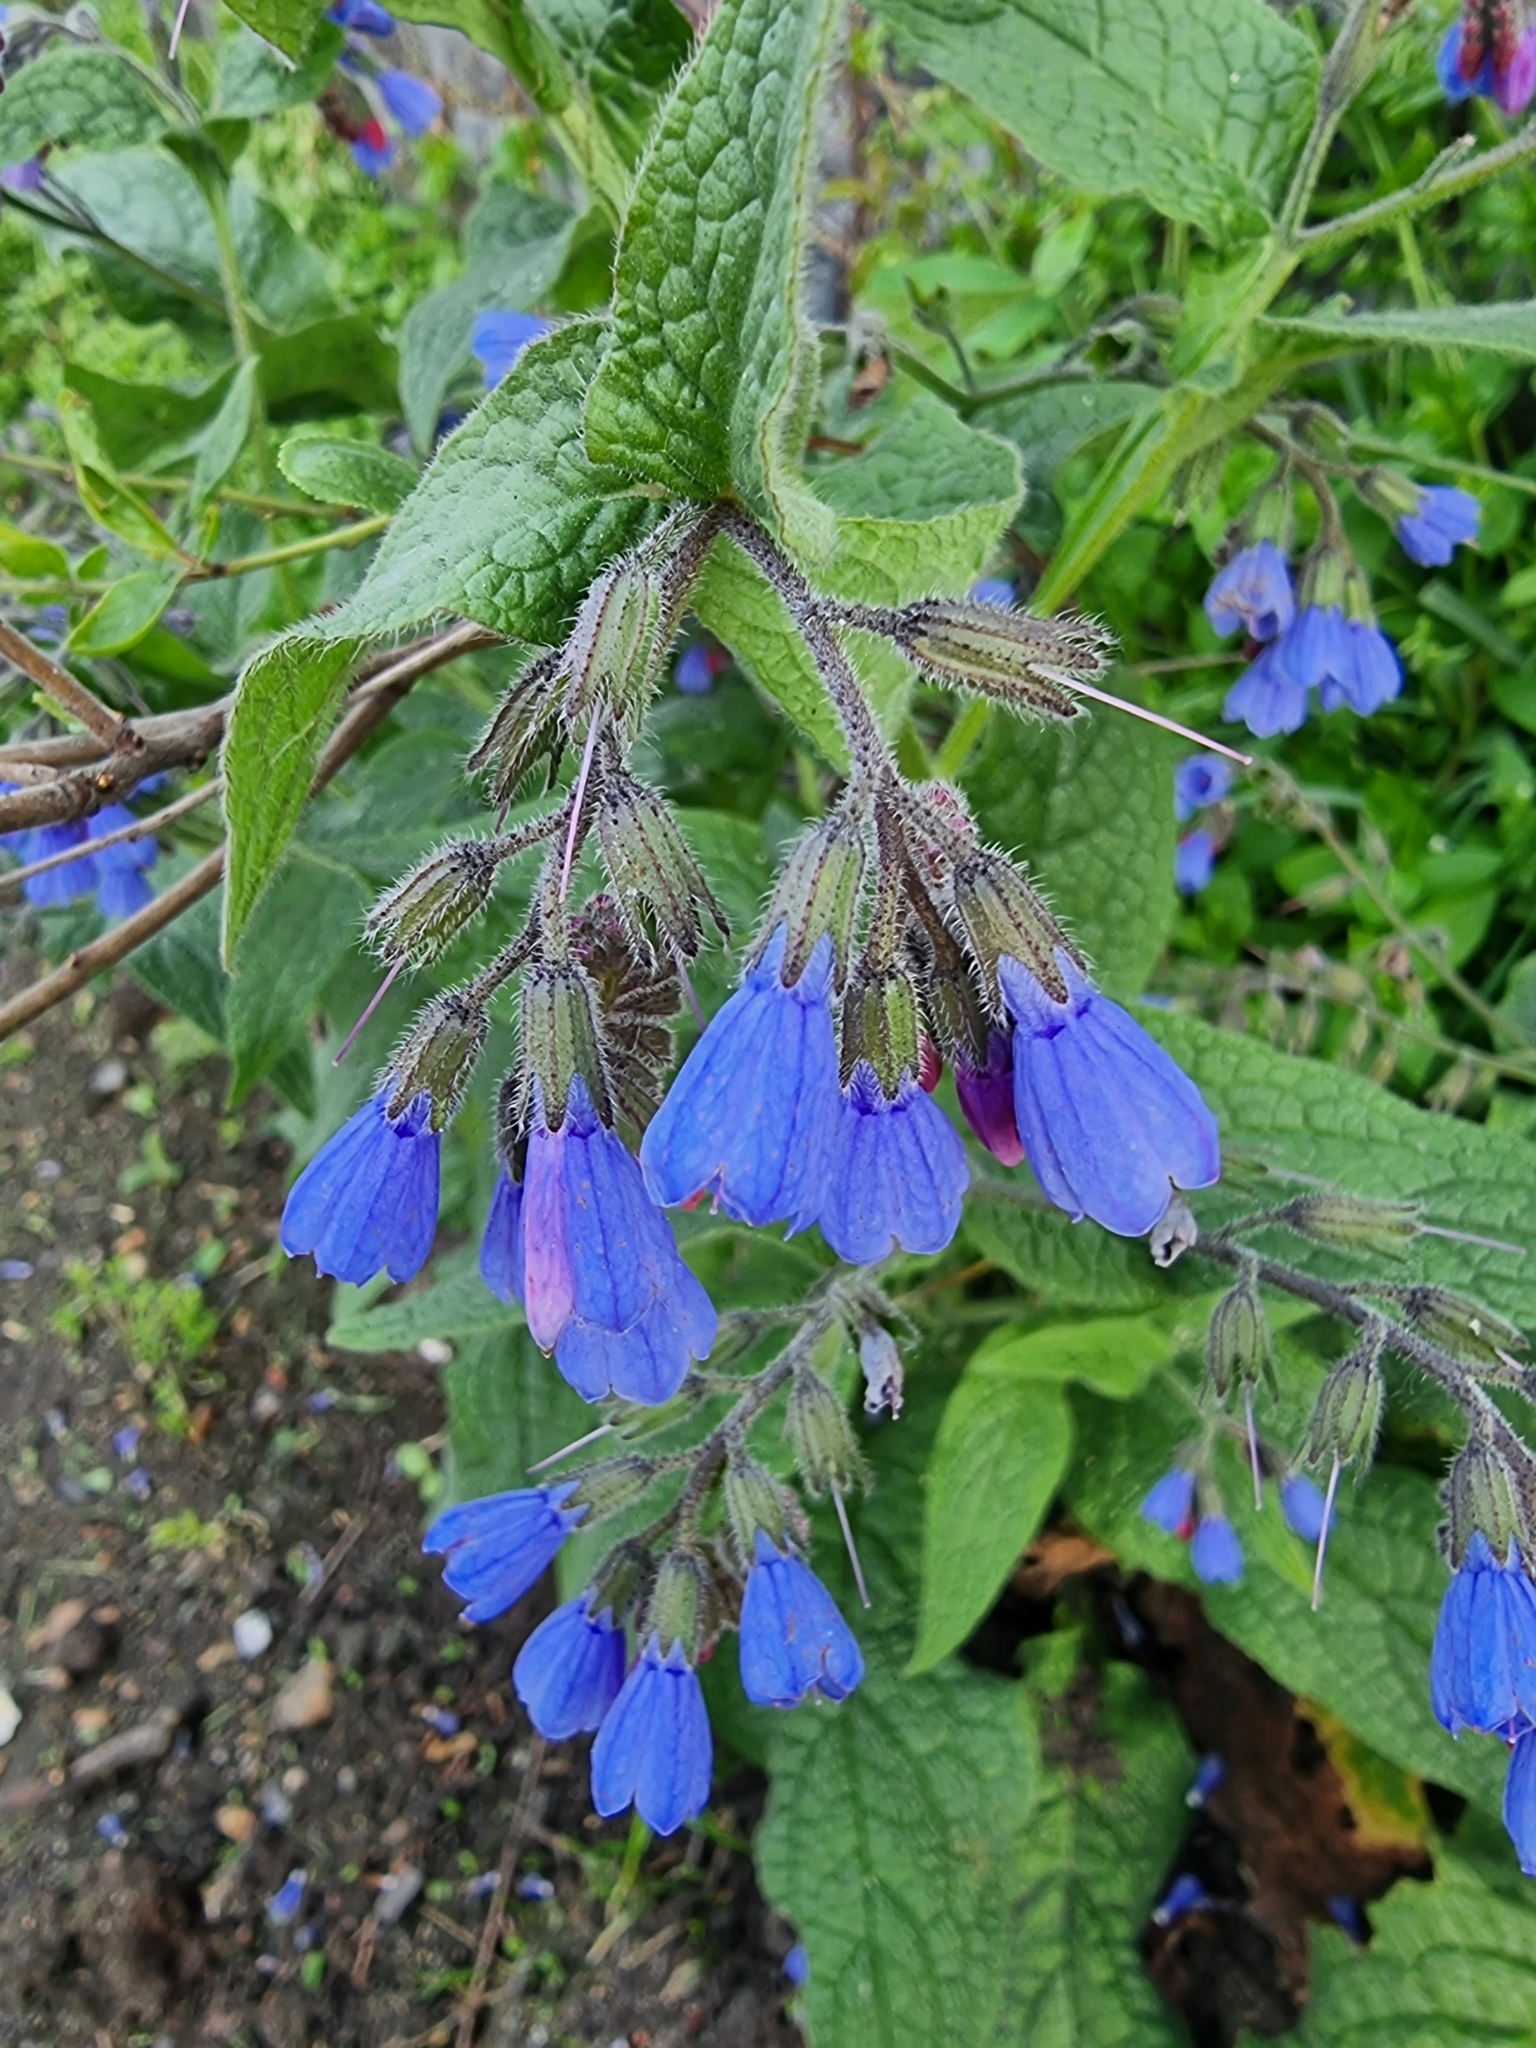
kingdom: Plantae
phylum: Tracheophyta
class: Magnoliopsida
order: Boraginales
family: Boraginaceae
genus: Symphytum
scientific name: Symphytum caucasicum
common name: Caucasian comfrey
